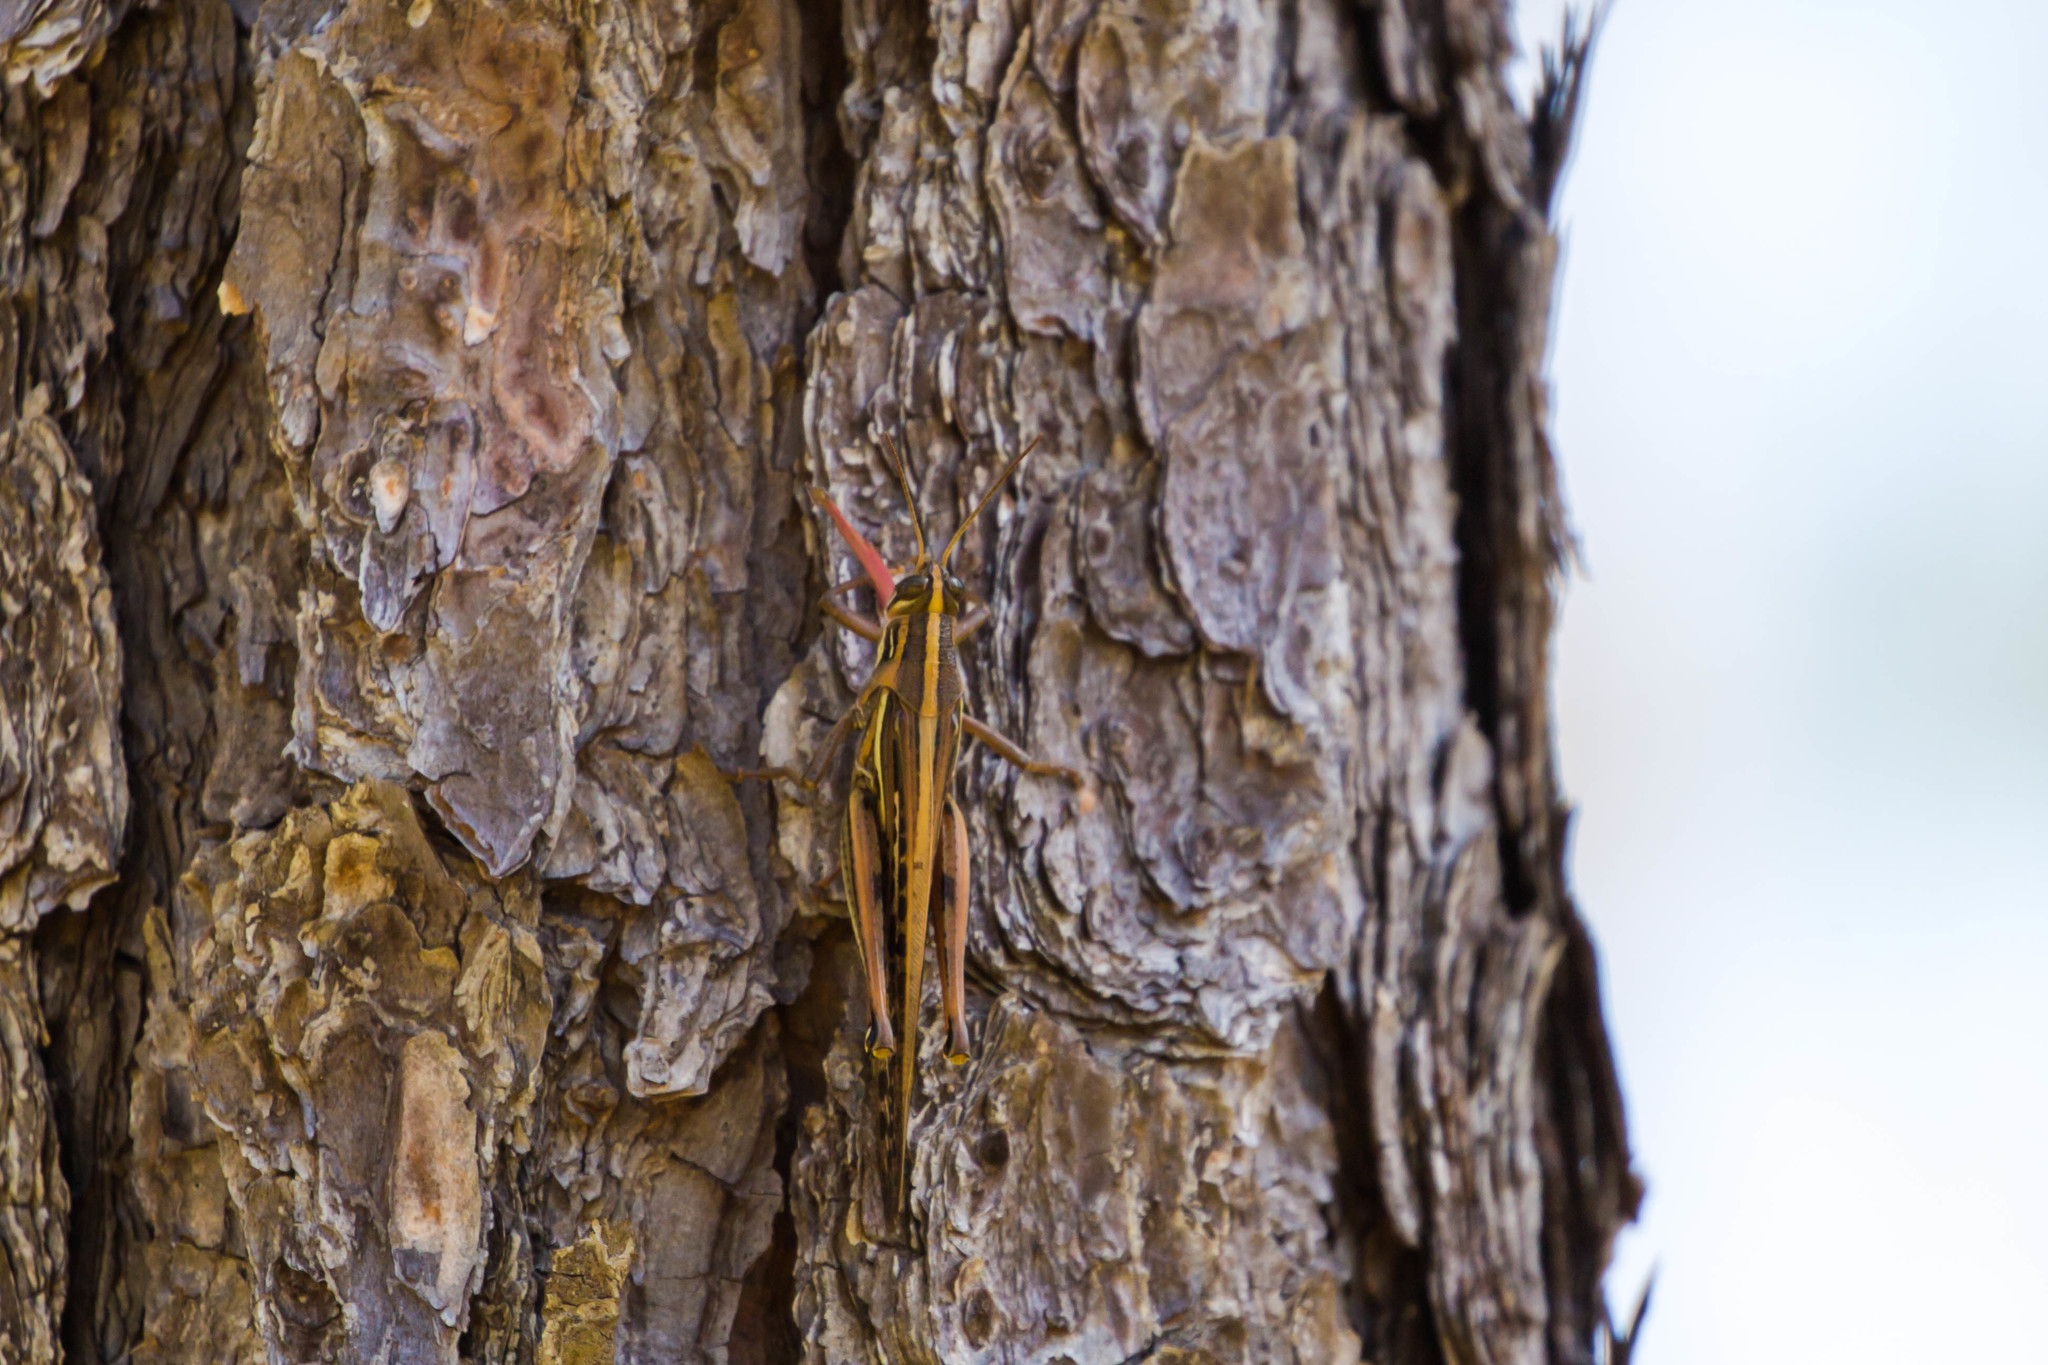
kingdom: Animalia
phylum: Arthropoda
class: Insecta
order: Orthoptera
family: Acrididae
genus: Schistocerca
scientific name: Schistocerca americana
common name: American bird locust
